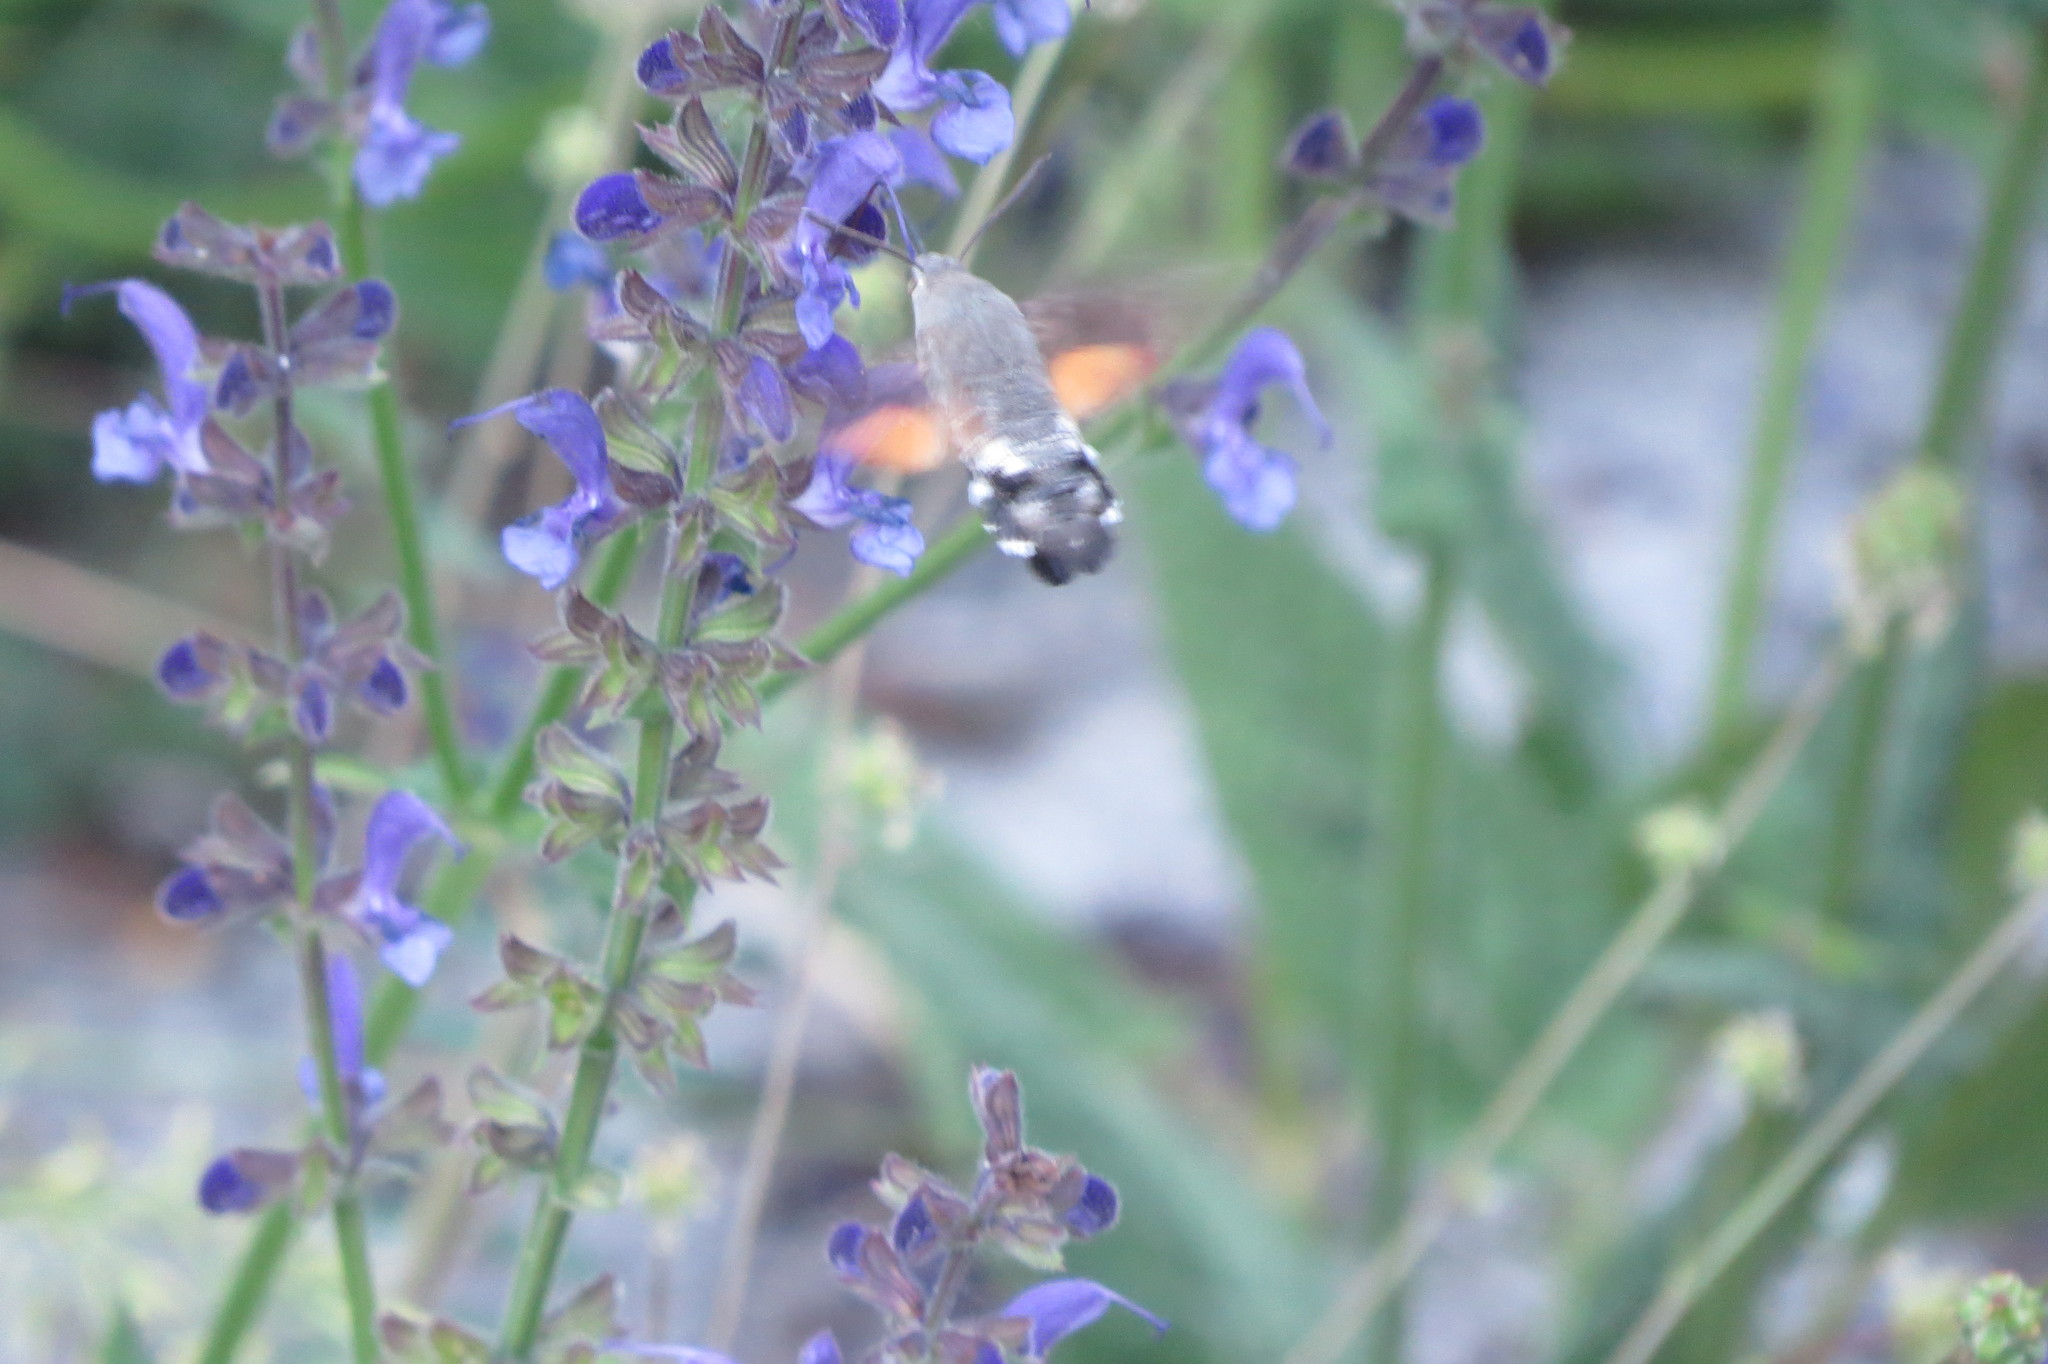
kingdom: Animalia
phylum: Arthropoda
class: Insecta
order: Lepidoptera
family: Sphingidae
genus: Macroglossum
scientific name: Macroglossum stellatarum
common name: Humming-bird hawk-moth
